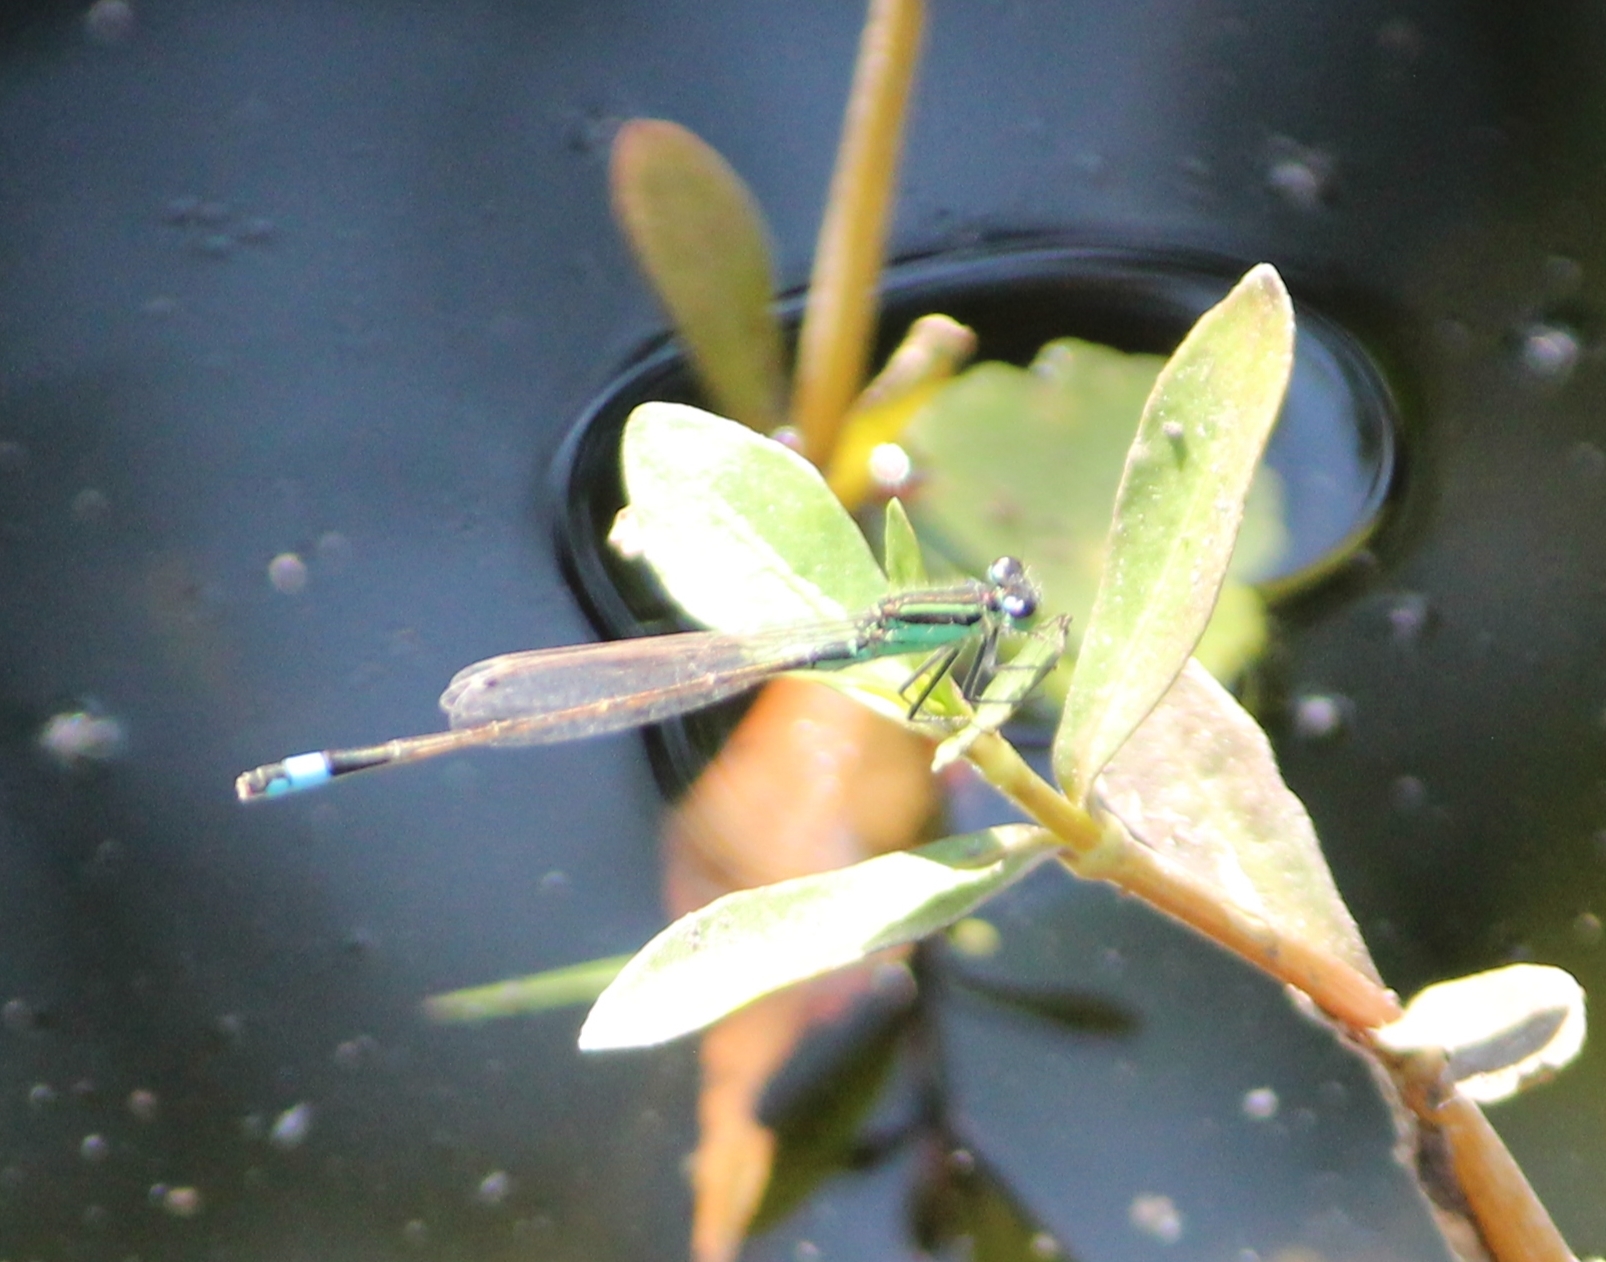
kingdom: Animalia
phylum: Arthropoda
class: Insecta
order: Odonata
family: Coenagrionidae
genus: Ischnura
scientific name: Ischnura ramburii
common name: Rambur's forktail
